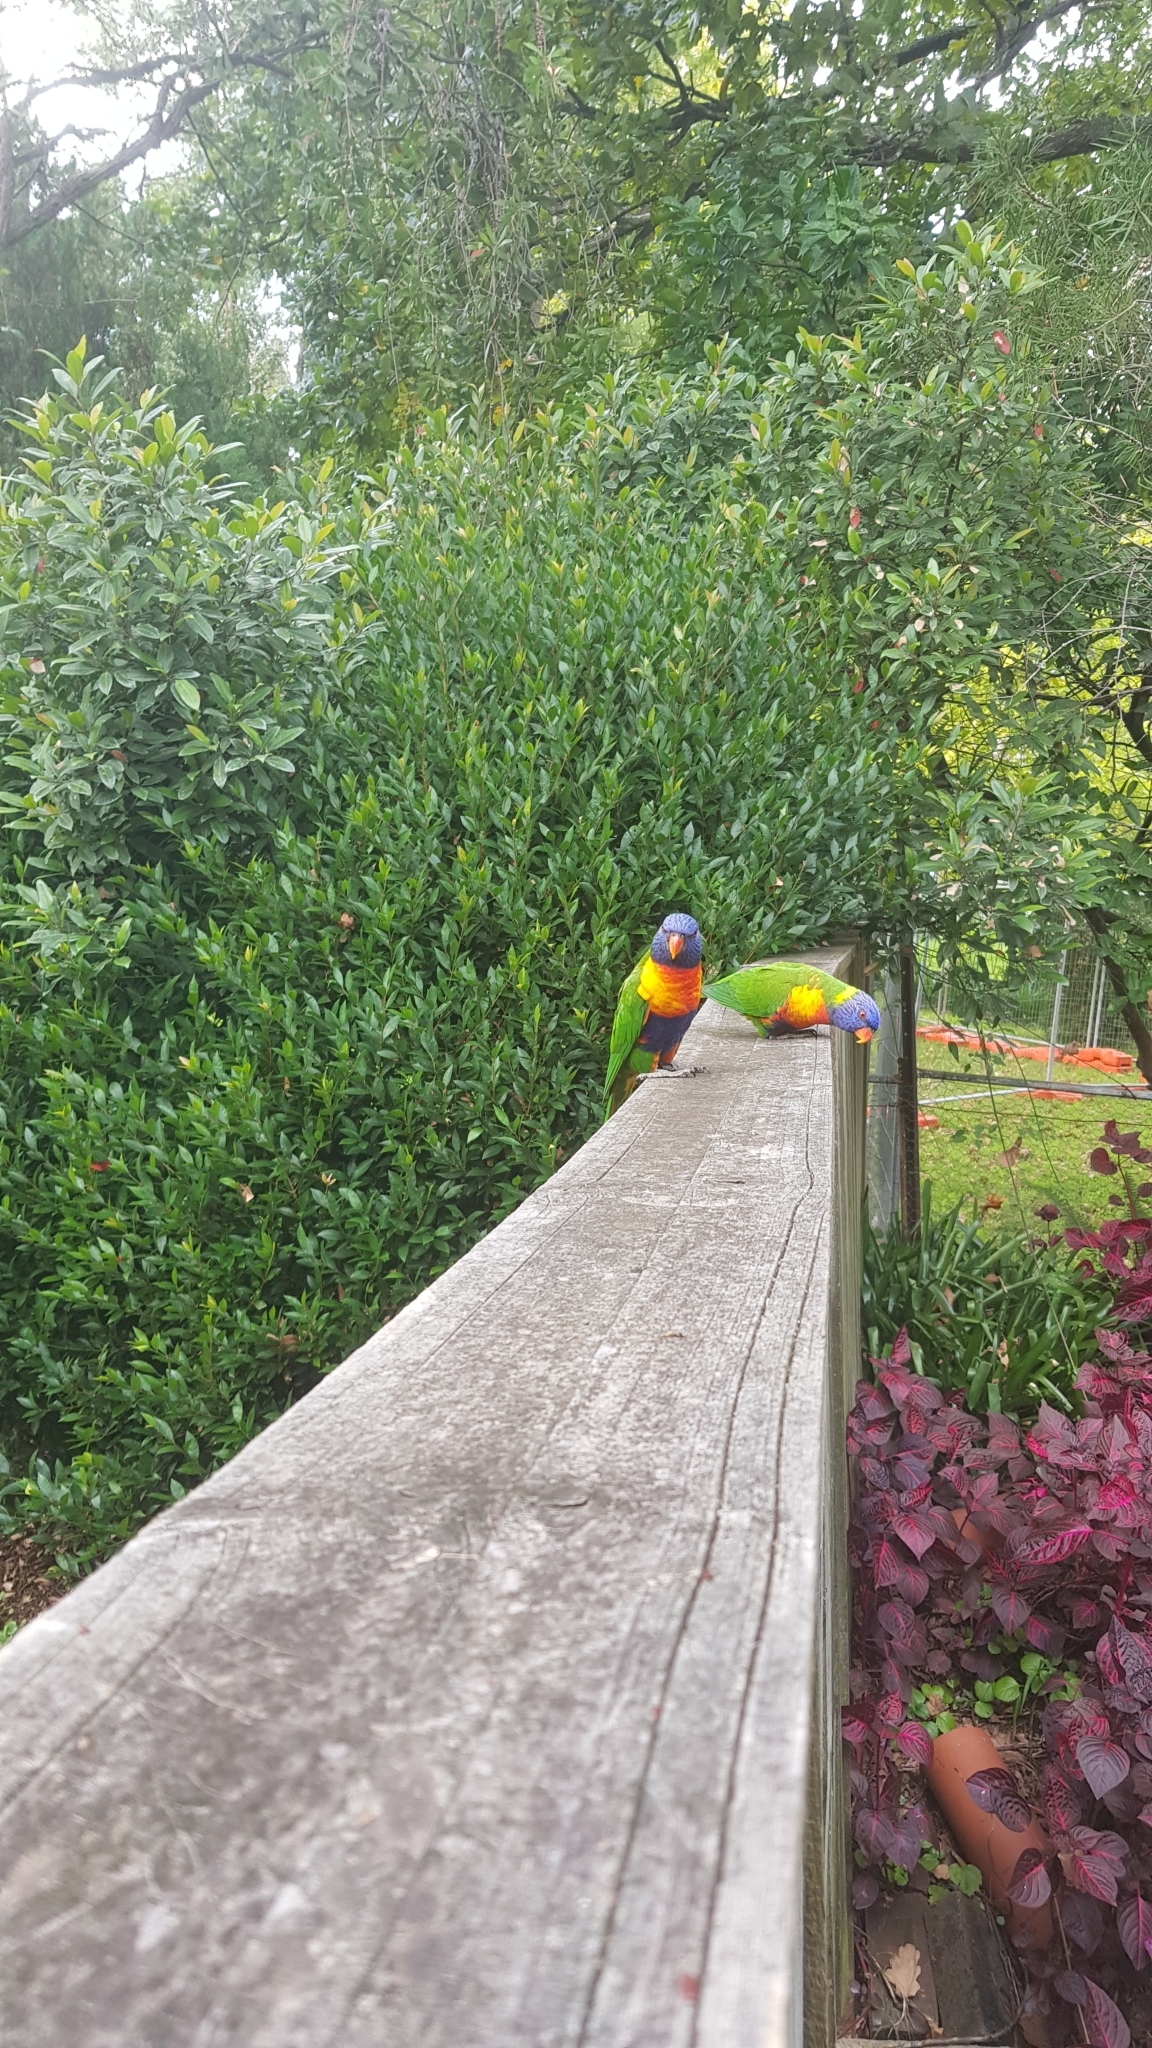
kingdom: Animalia
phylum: Chordata
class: Aves
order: Psittaciformes
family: Psittacidae
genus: Trichoglossus
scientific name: Trichoglossus haematodus
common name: Coconut lorikeet
